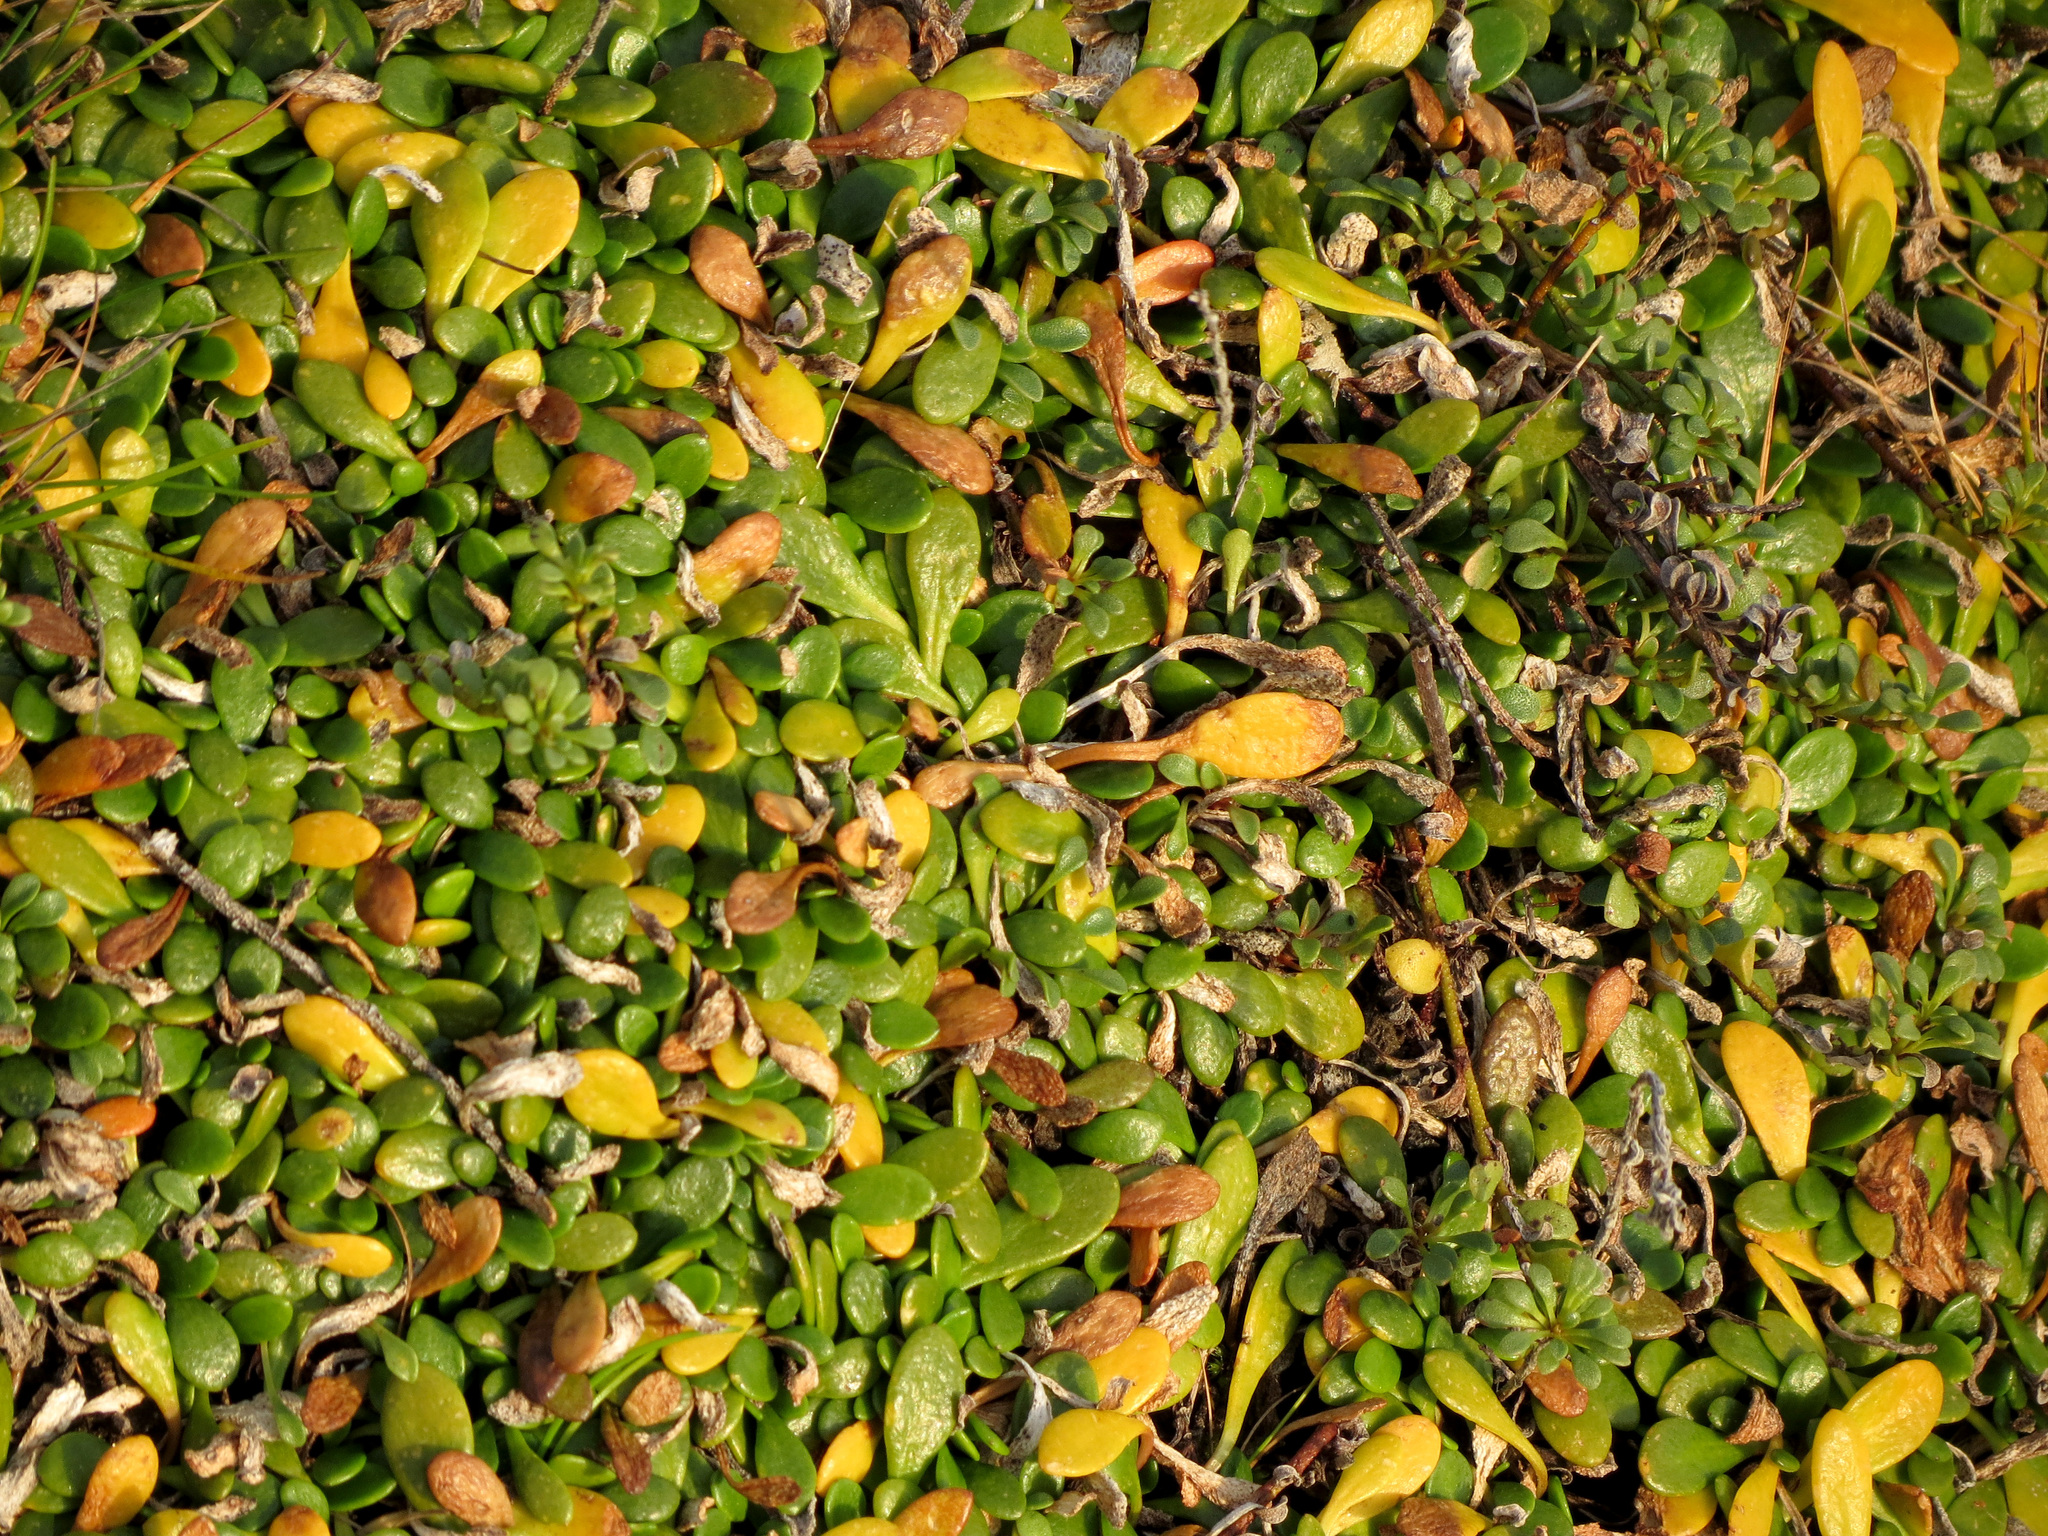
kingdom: Plantae
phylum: Tracheophyta
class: Magnoliopsida
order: Asterales
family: Goodeniaceae
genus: Goodenia
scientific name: Goodenia radicans
